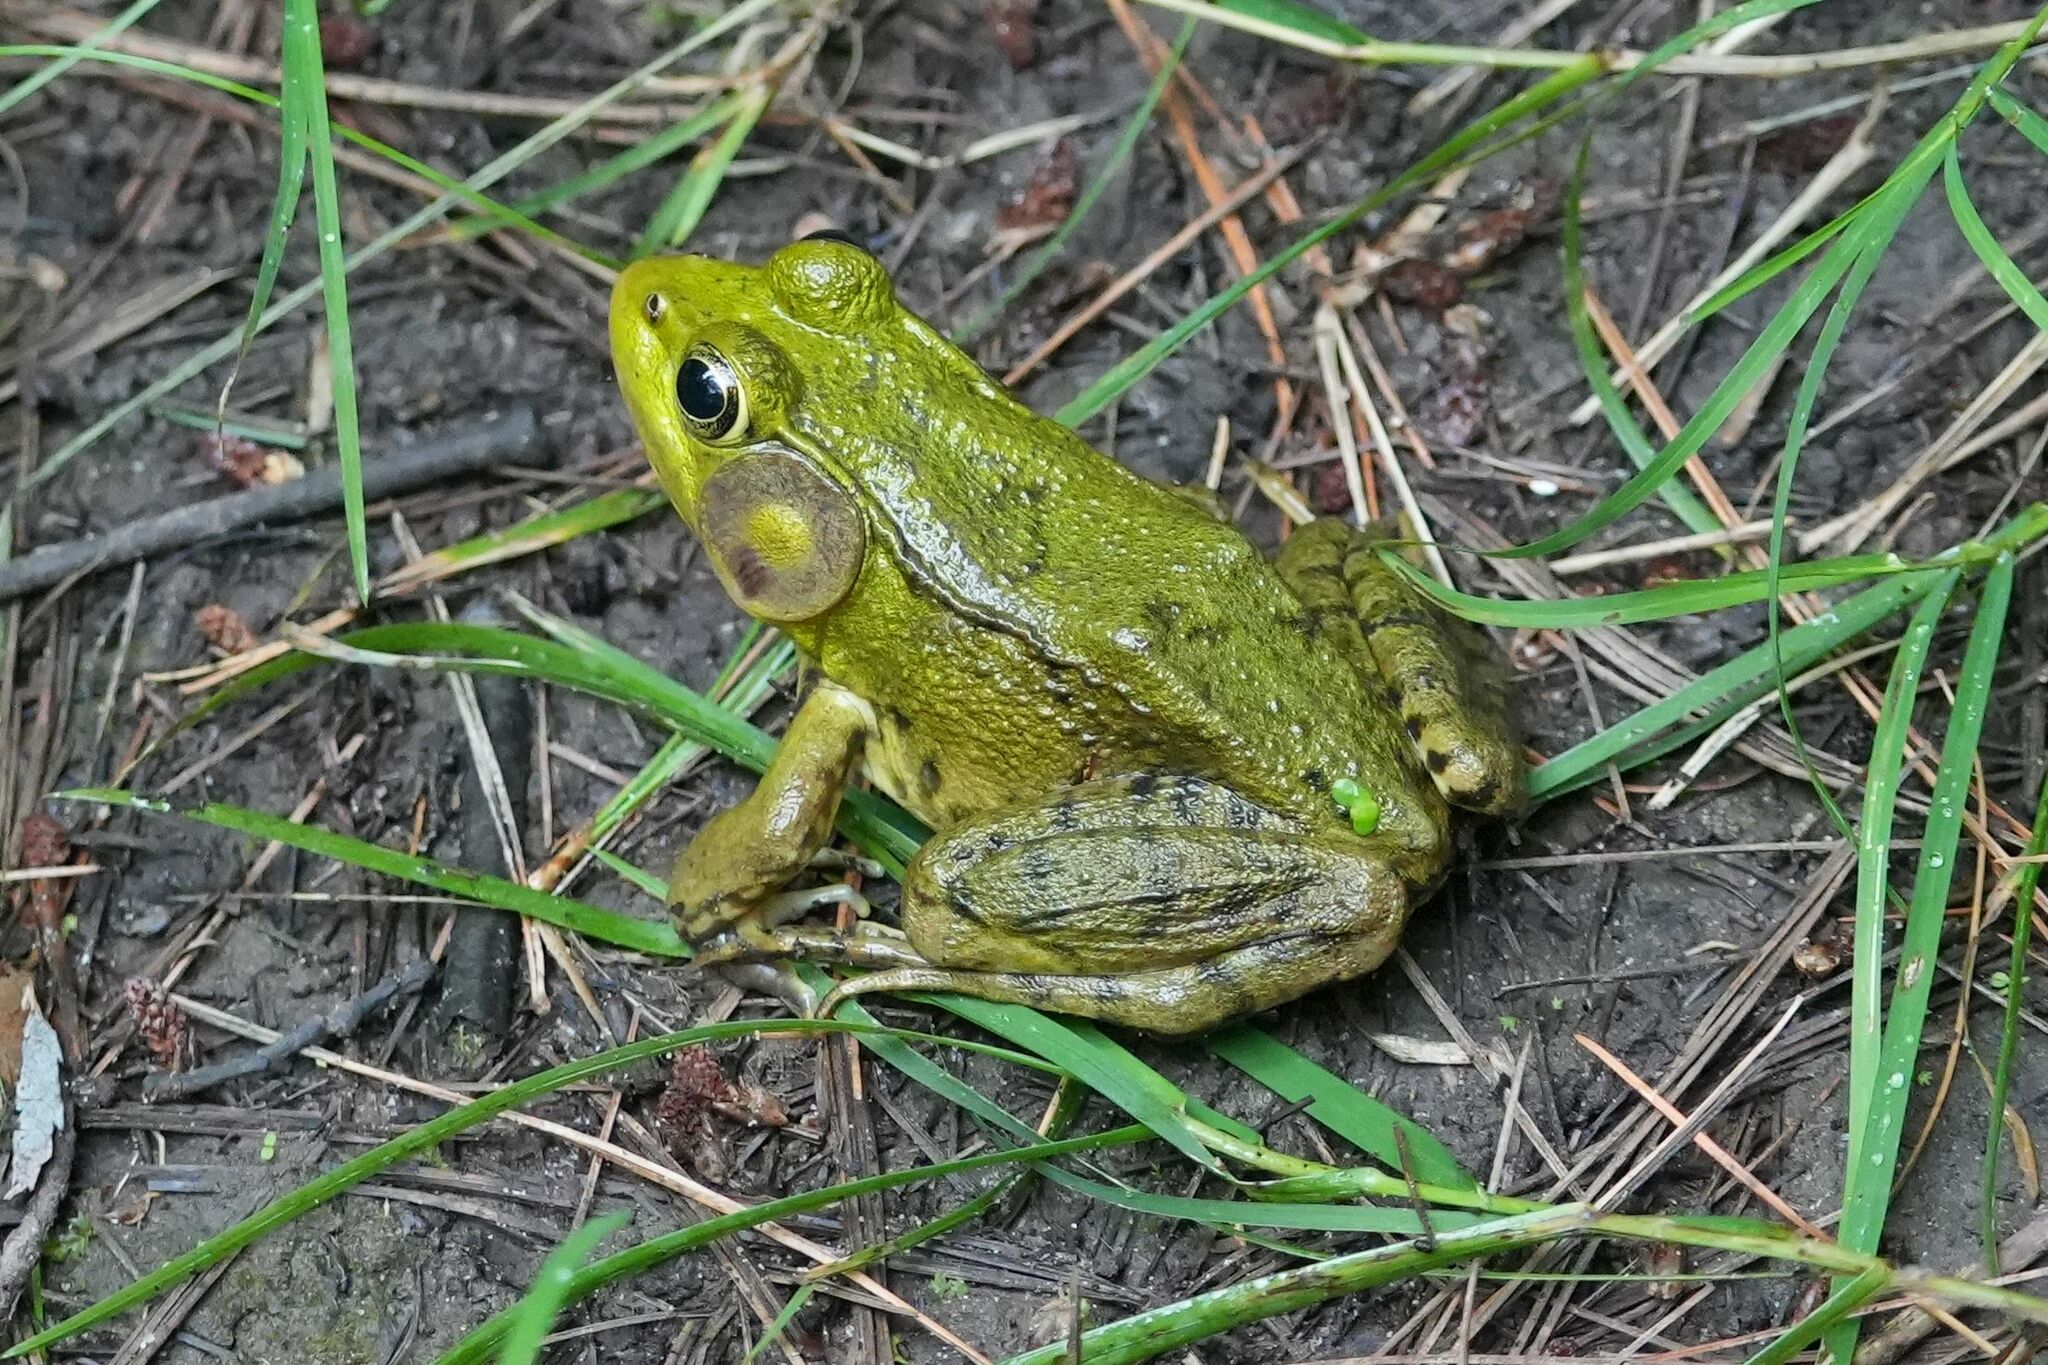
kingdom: Animalia
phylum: Chordata
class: Amphibia
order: Anura
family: Ranidae
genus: Lithobates
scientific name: Lithobates clamitans
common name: Green frog
